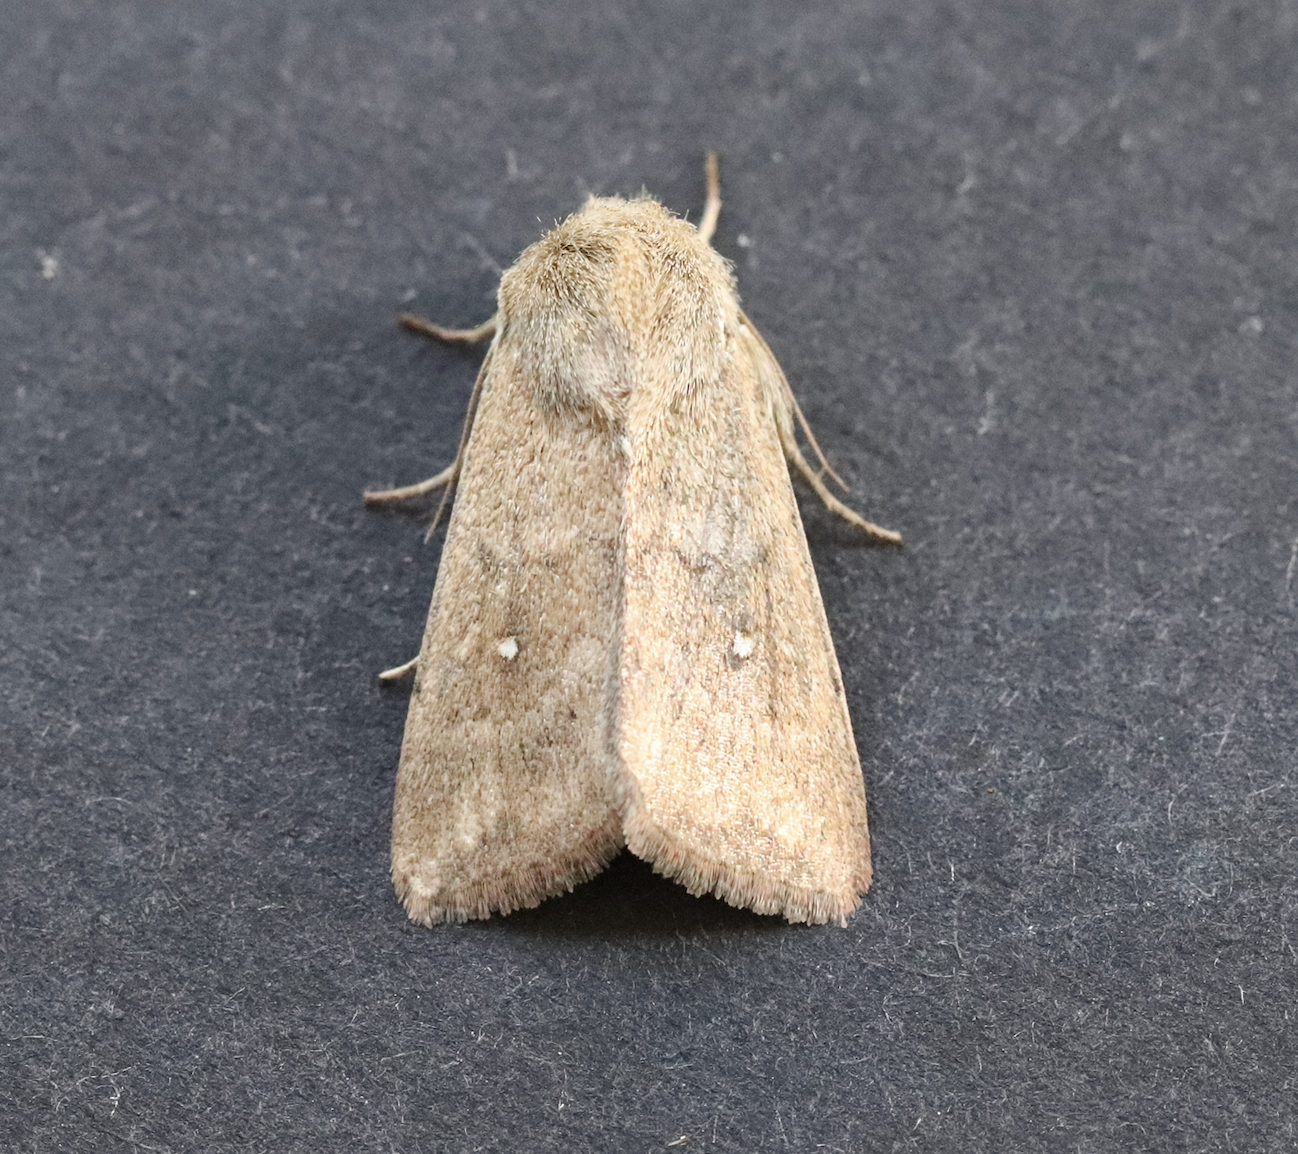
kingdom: Animalia
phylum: Arthropoda
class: Insecta
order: Lepidoptera
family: Noctuidae
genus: Mythimna
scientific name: Mythimna albipuncta
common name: White-point
